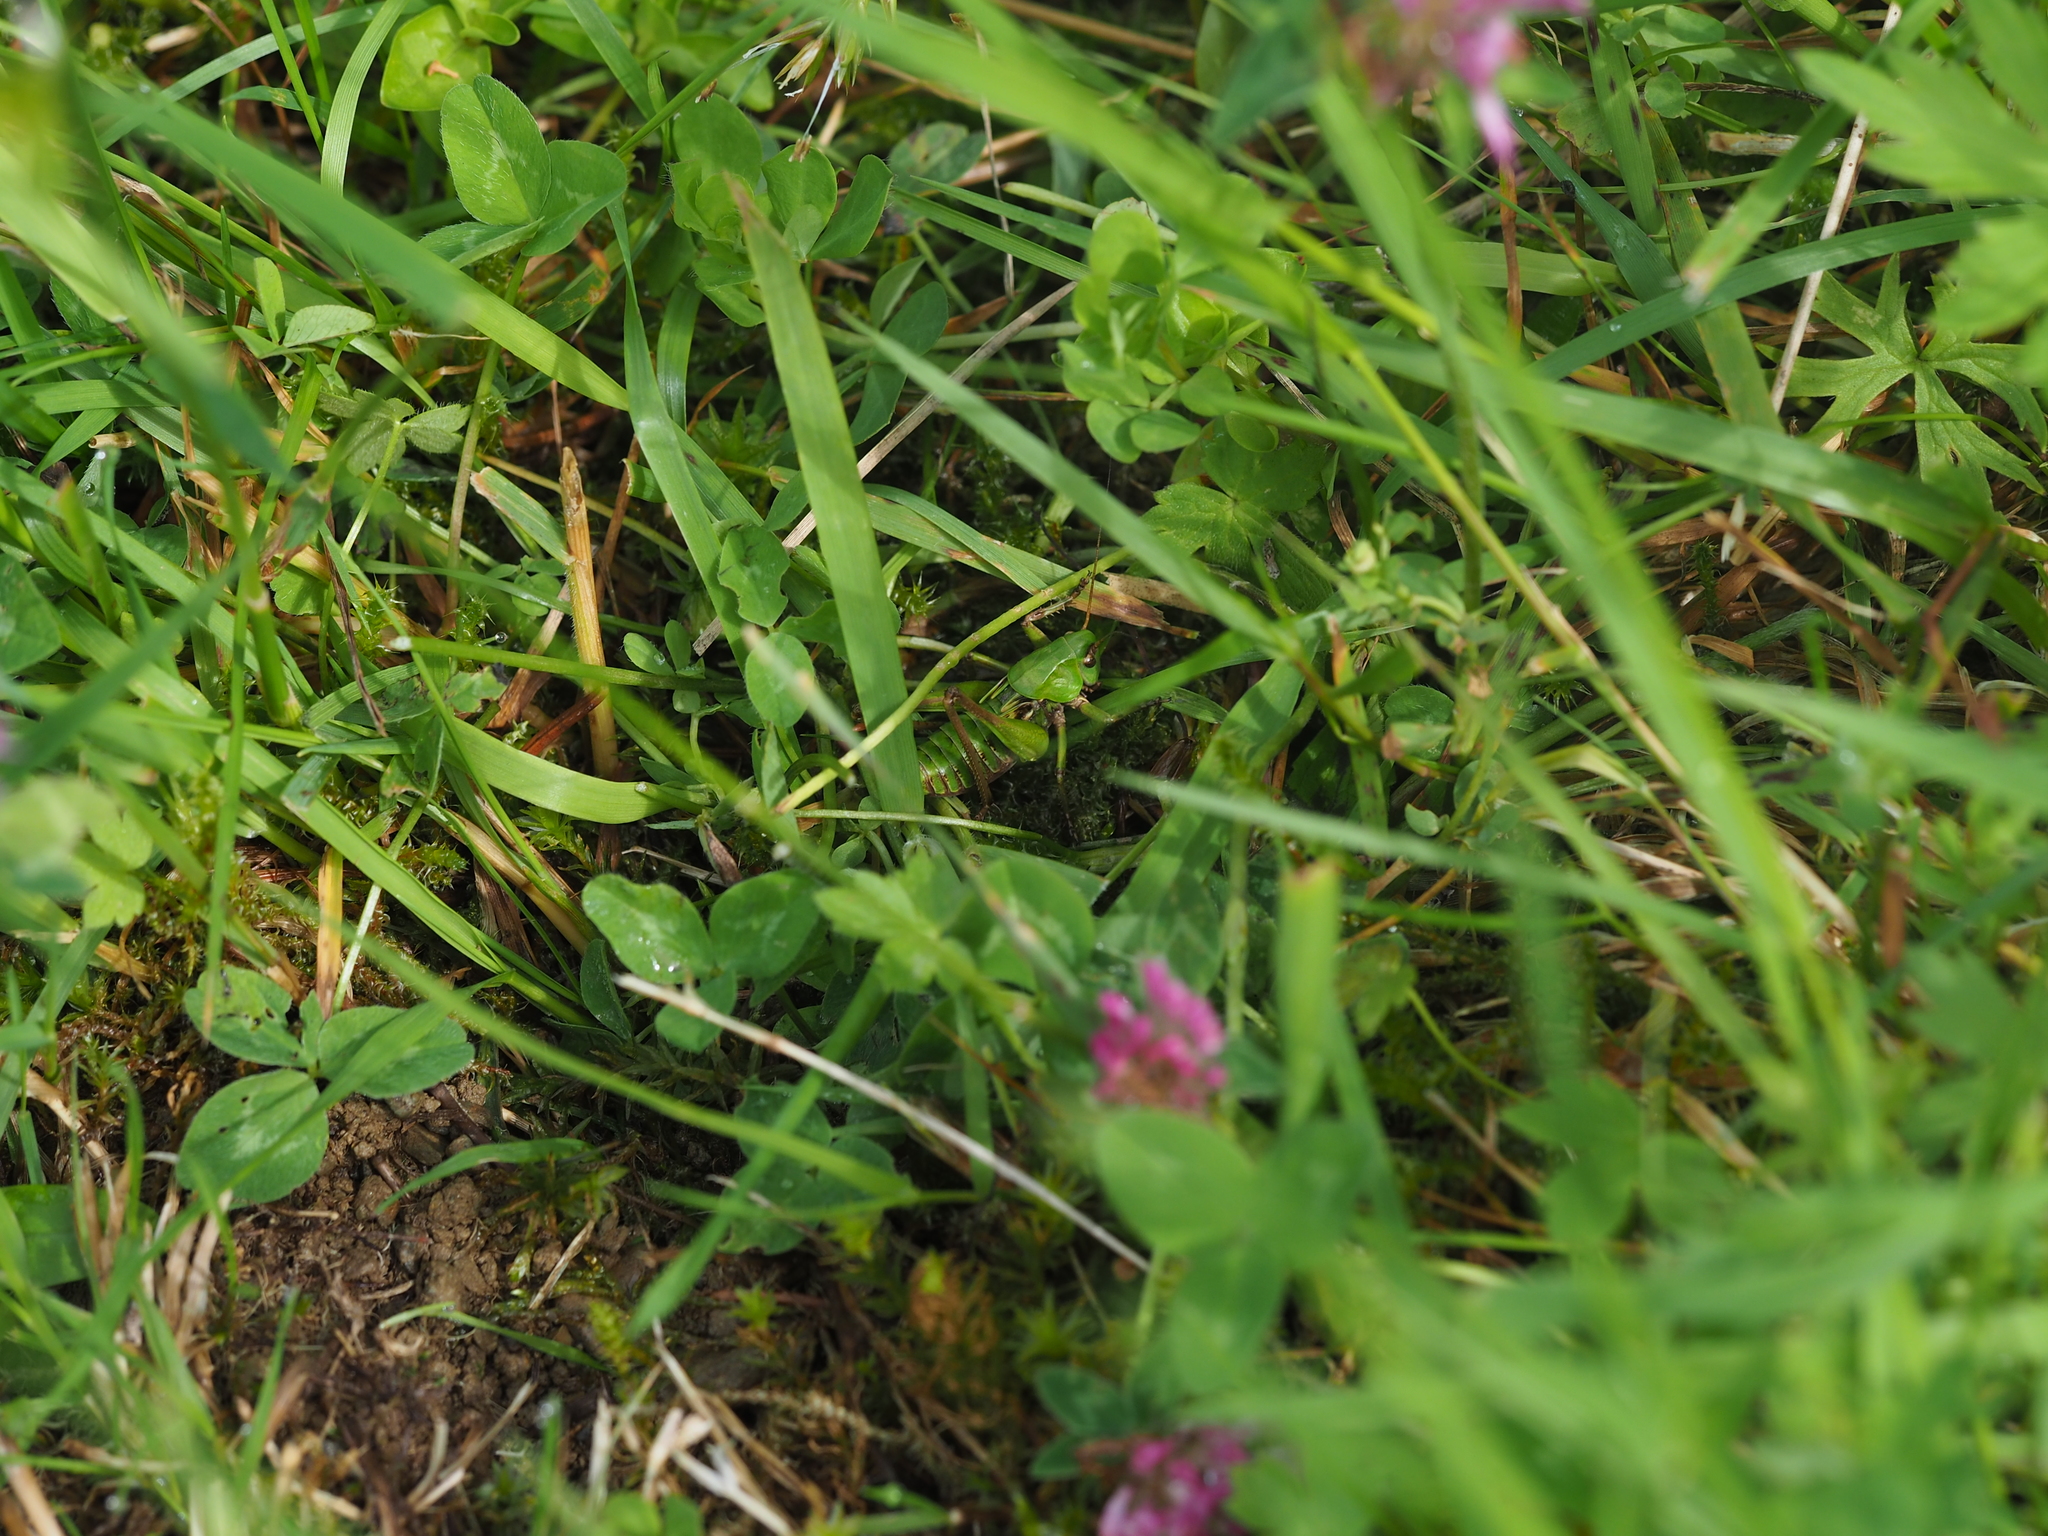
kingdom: Animalia
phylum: Arthropoda
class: Insecta
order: Orthoptera
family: Tettigoniidae
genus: Decticus
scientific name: Decticus verrucivorus
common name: Wart-biter
